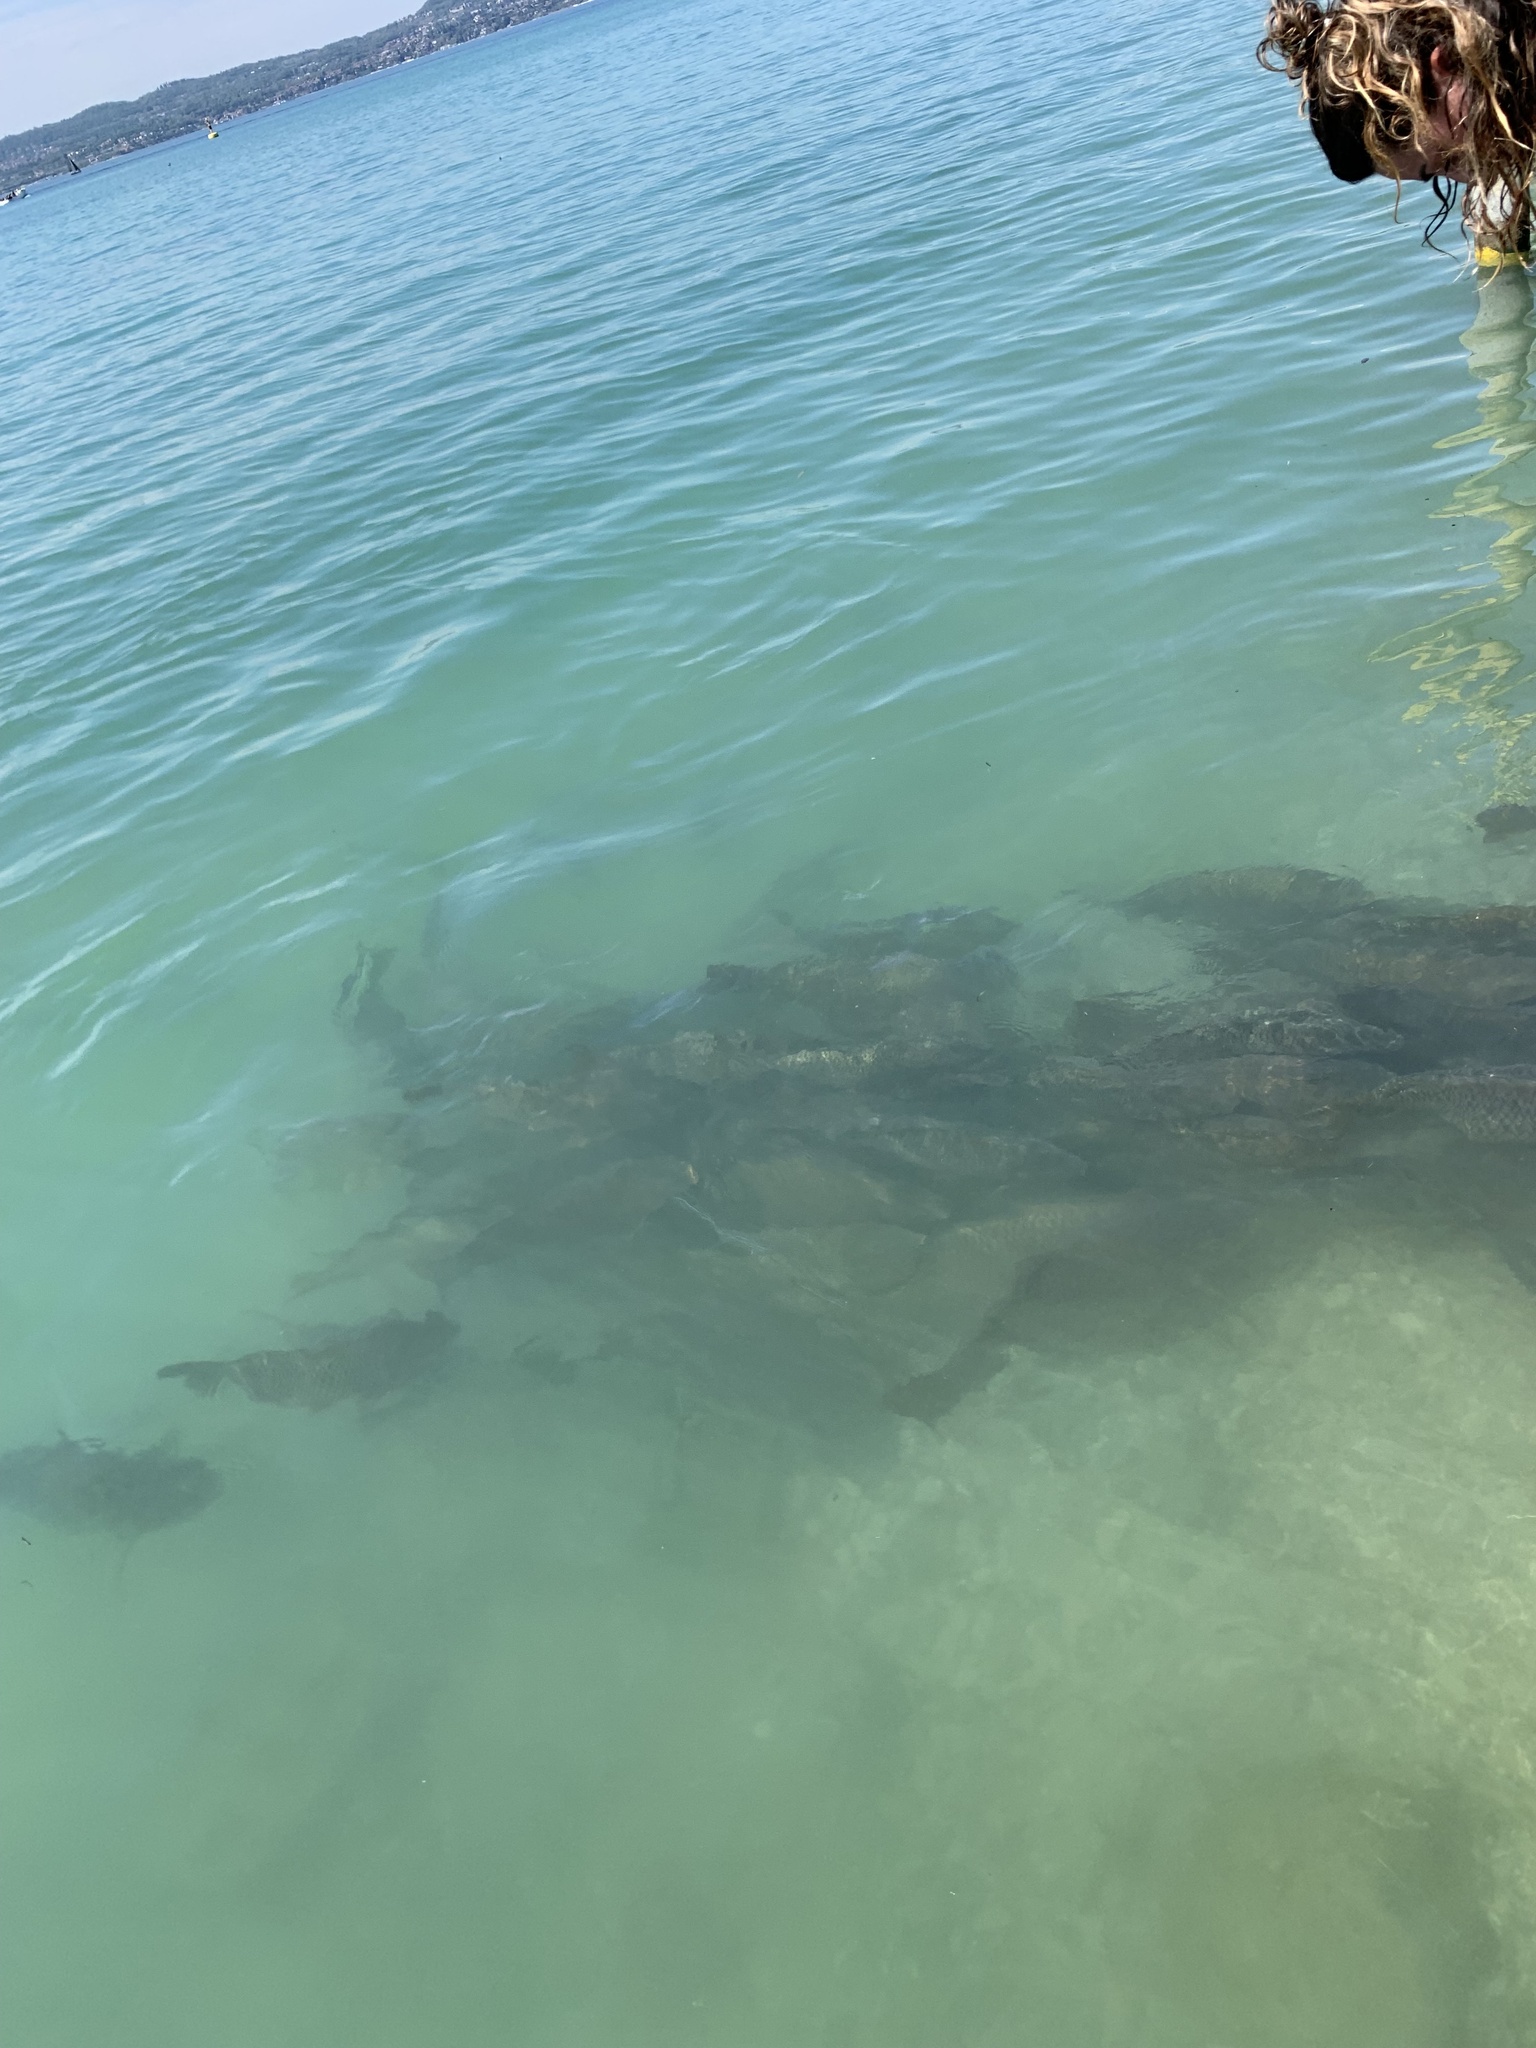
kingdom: Animalia
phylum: Chordata
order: Cypriniformes
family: Cyprinidae
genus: Cyprinus
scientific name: Cyprinus carpio
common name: Common carp
